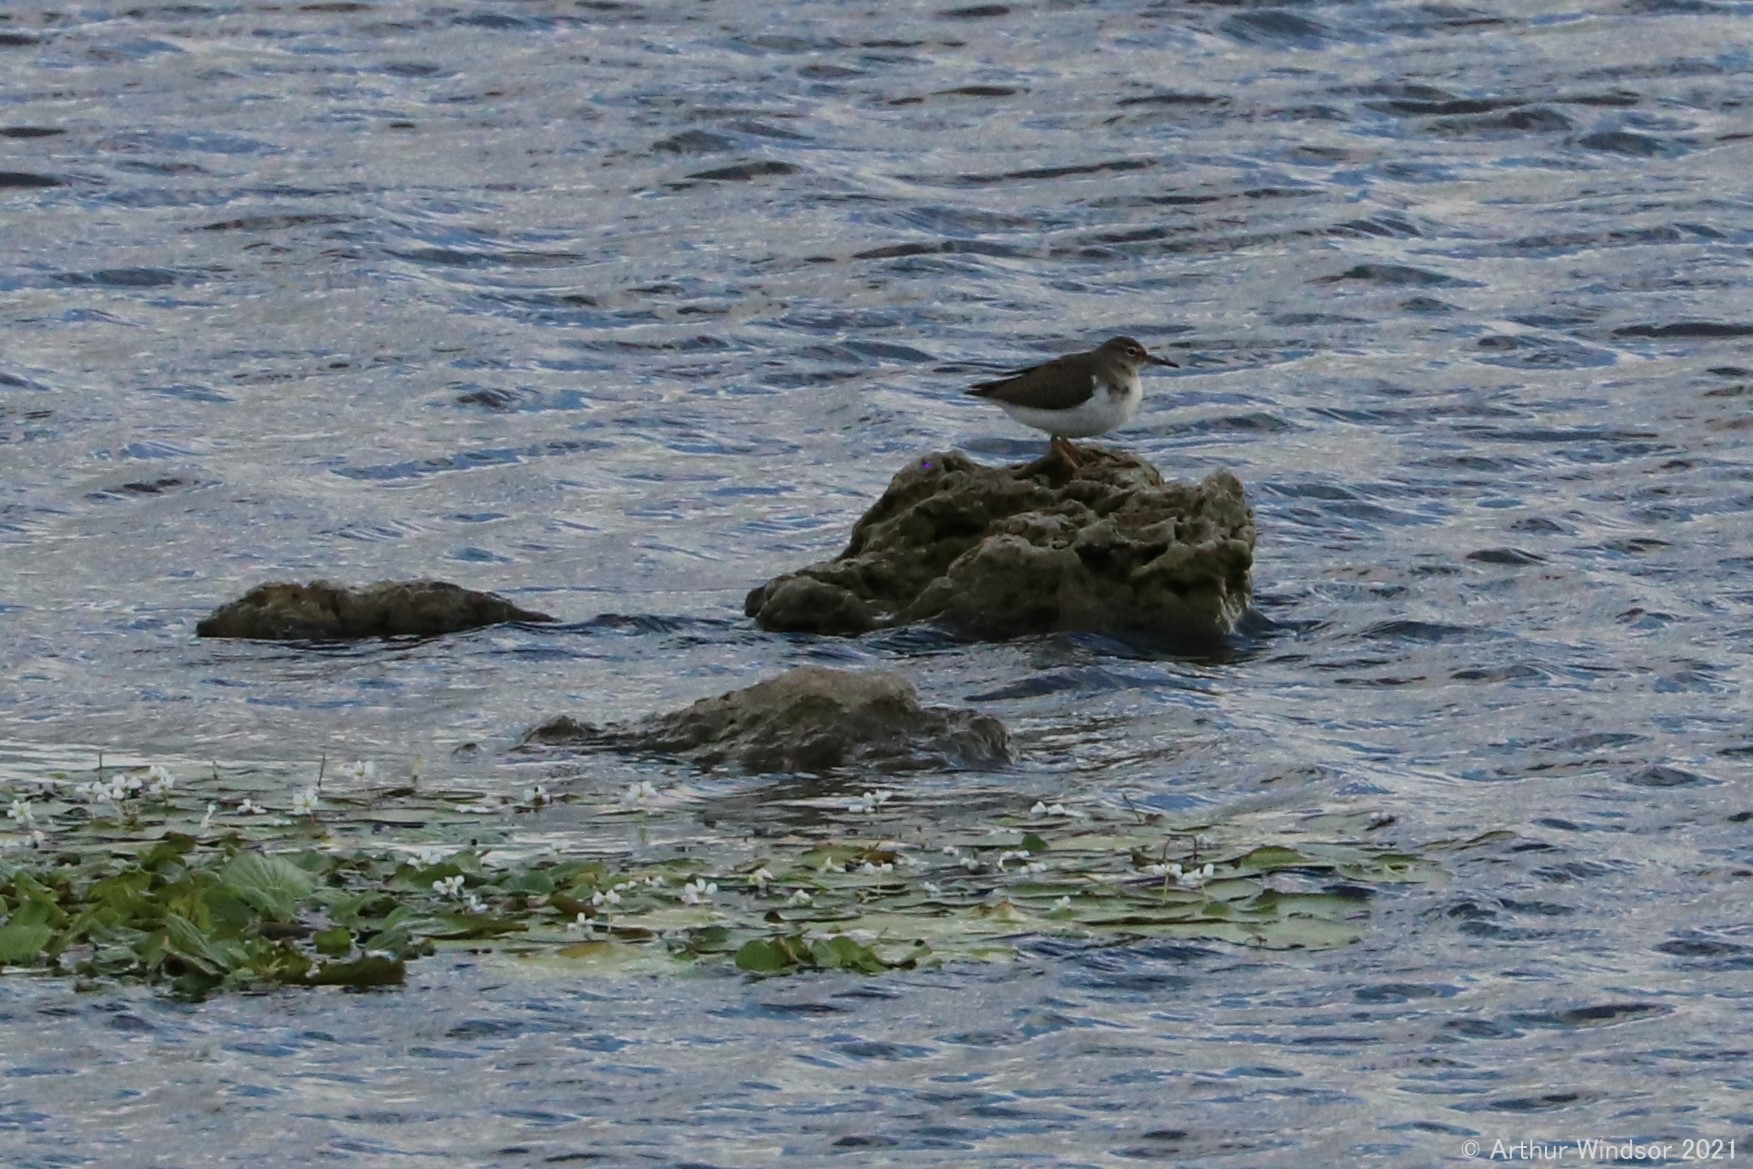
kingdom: Animalia
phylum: Chordata
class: Aves
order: Charadriiformes
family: Scolopacidae
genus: Actitis
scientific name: Actitis macularius
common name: Spotted sandpiper
